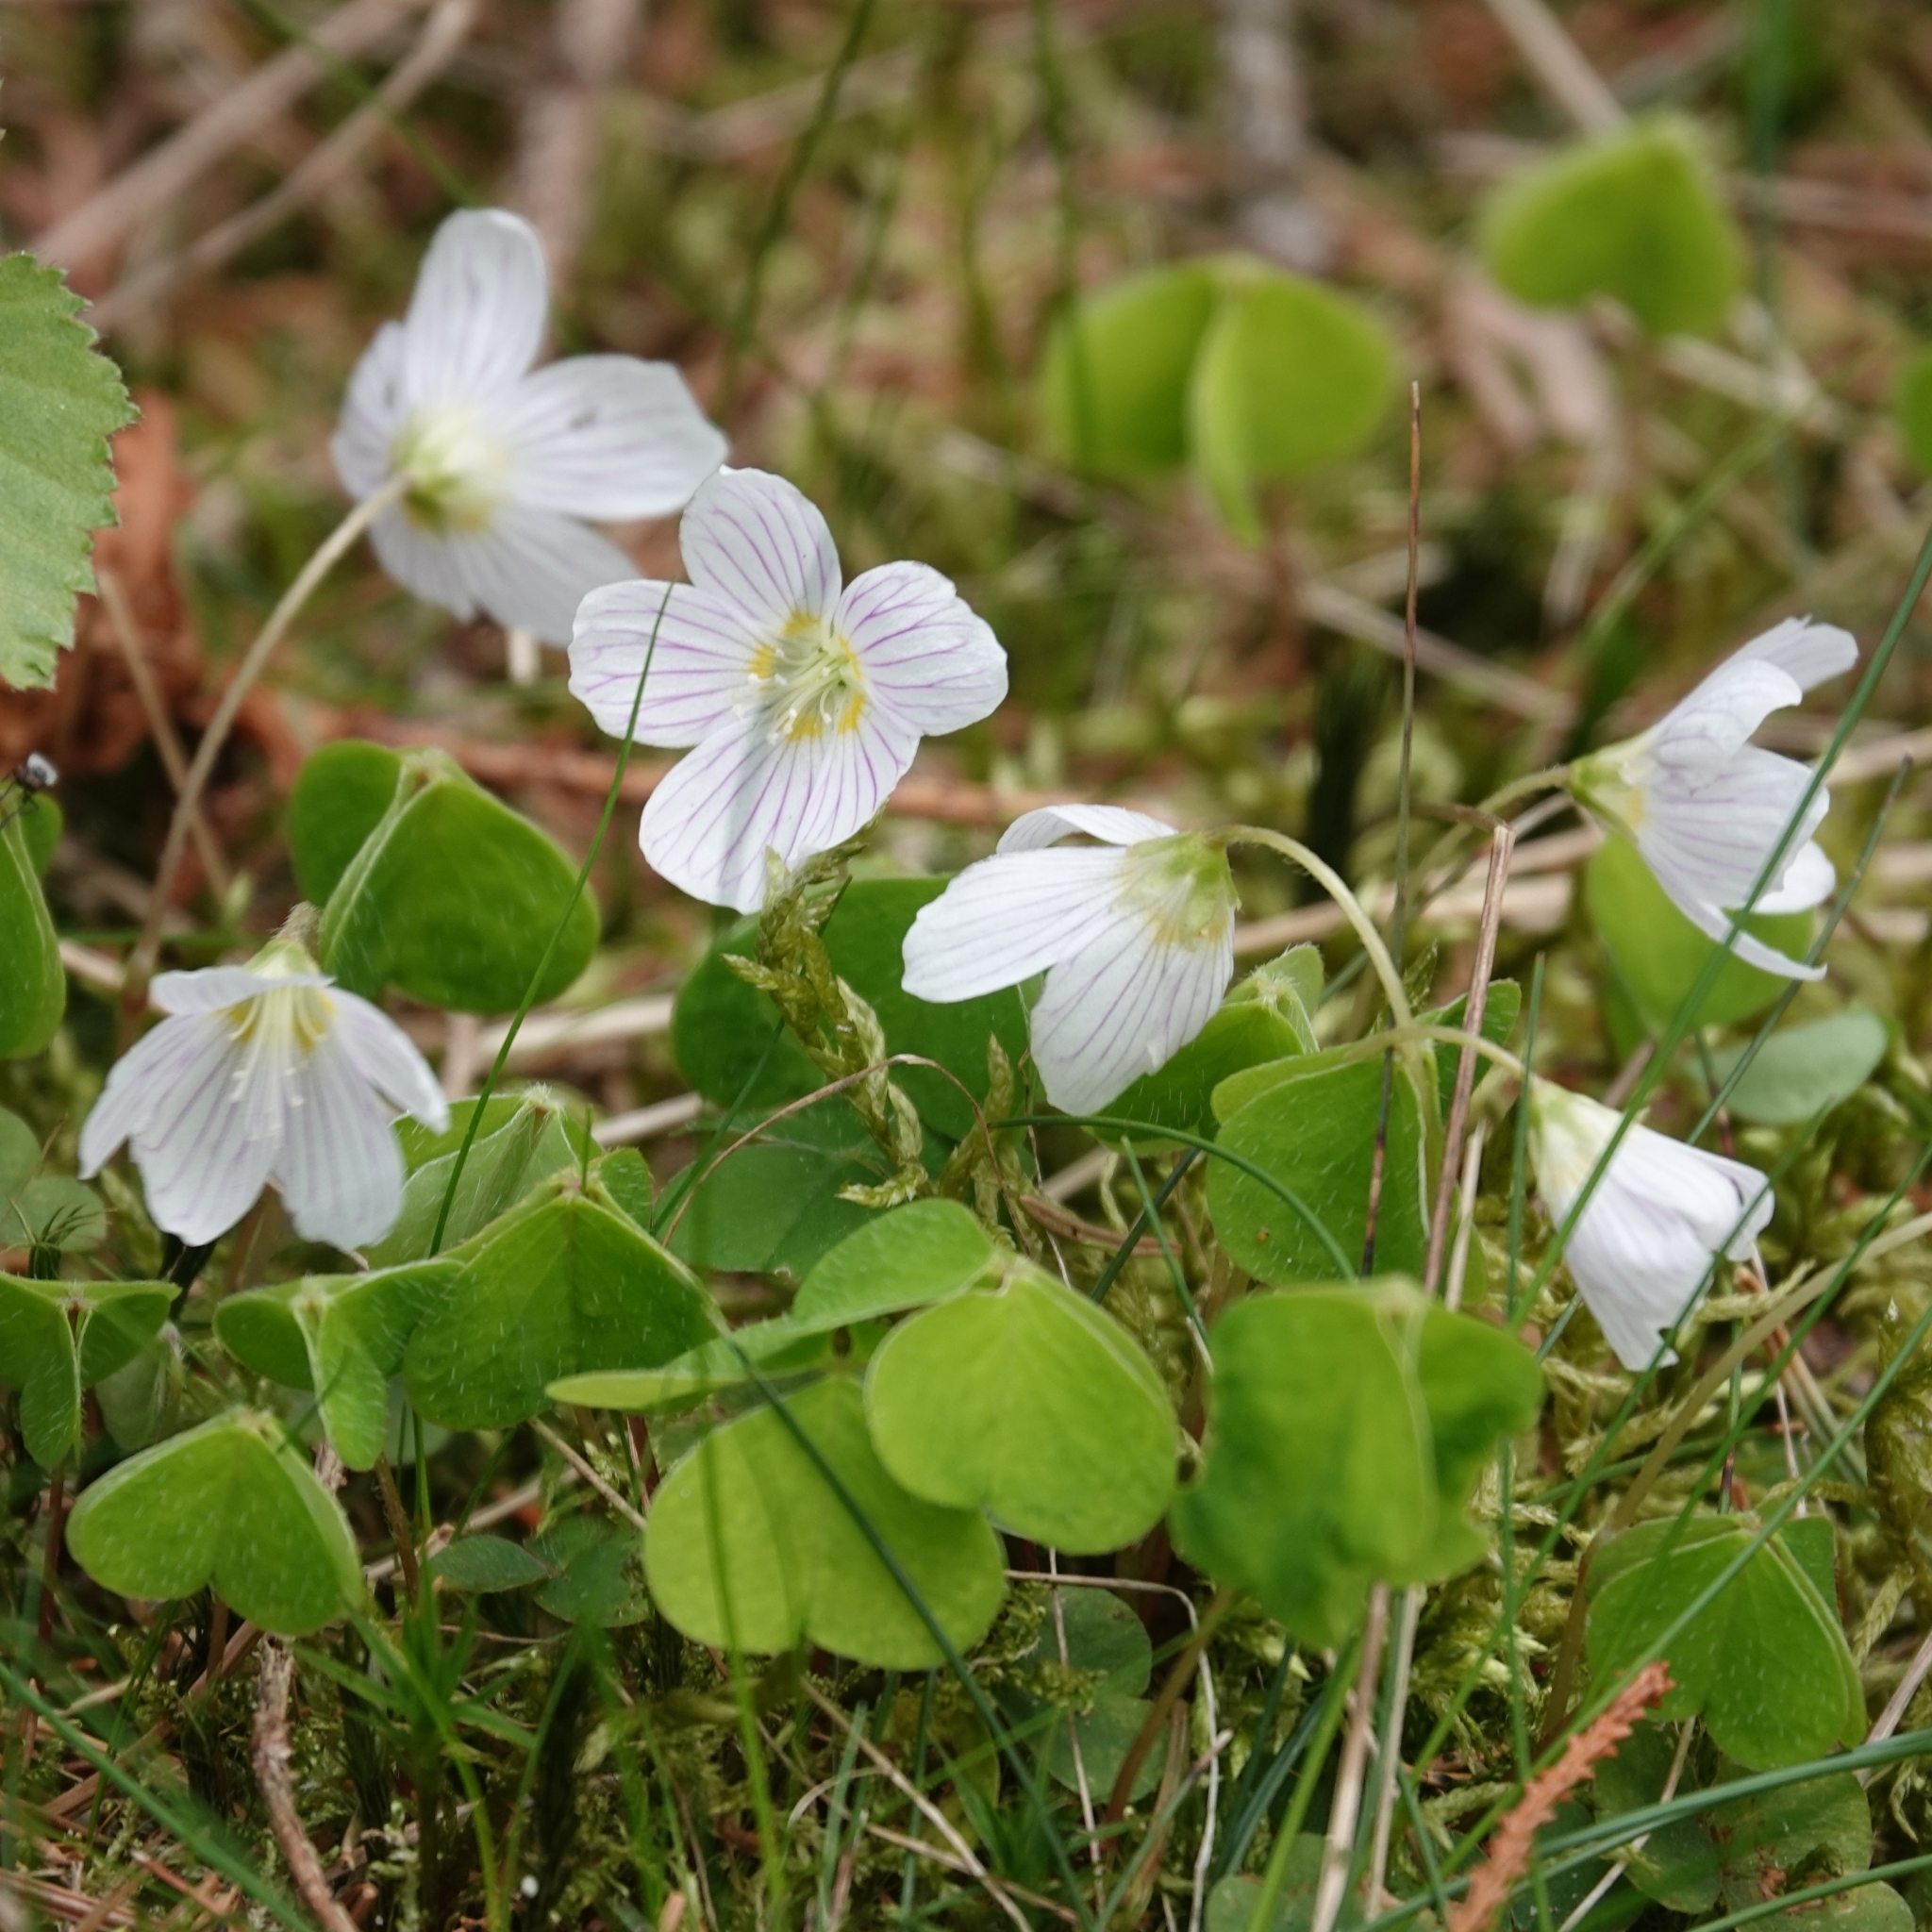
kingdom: Plantae
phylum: Tracheophyta
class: Magnoliopsida
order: Oxalidales
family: Oxalidaceae
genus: Oxalis
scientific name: Oxalis acetosella
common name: Wood-sorrel
